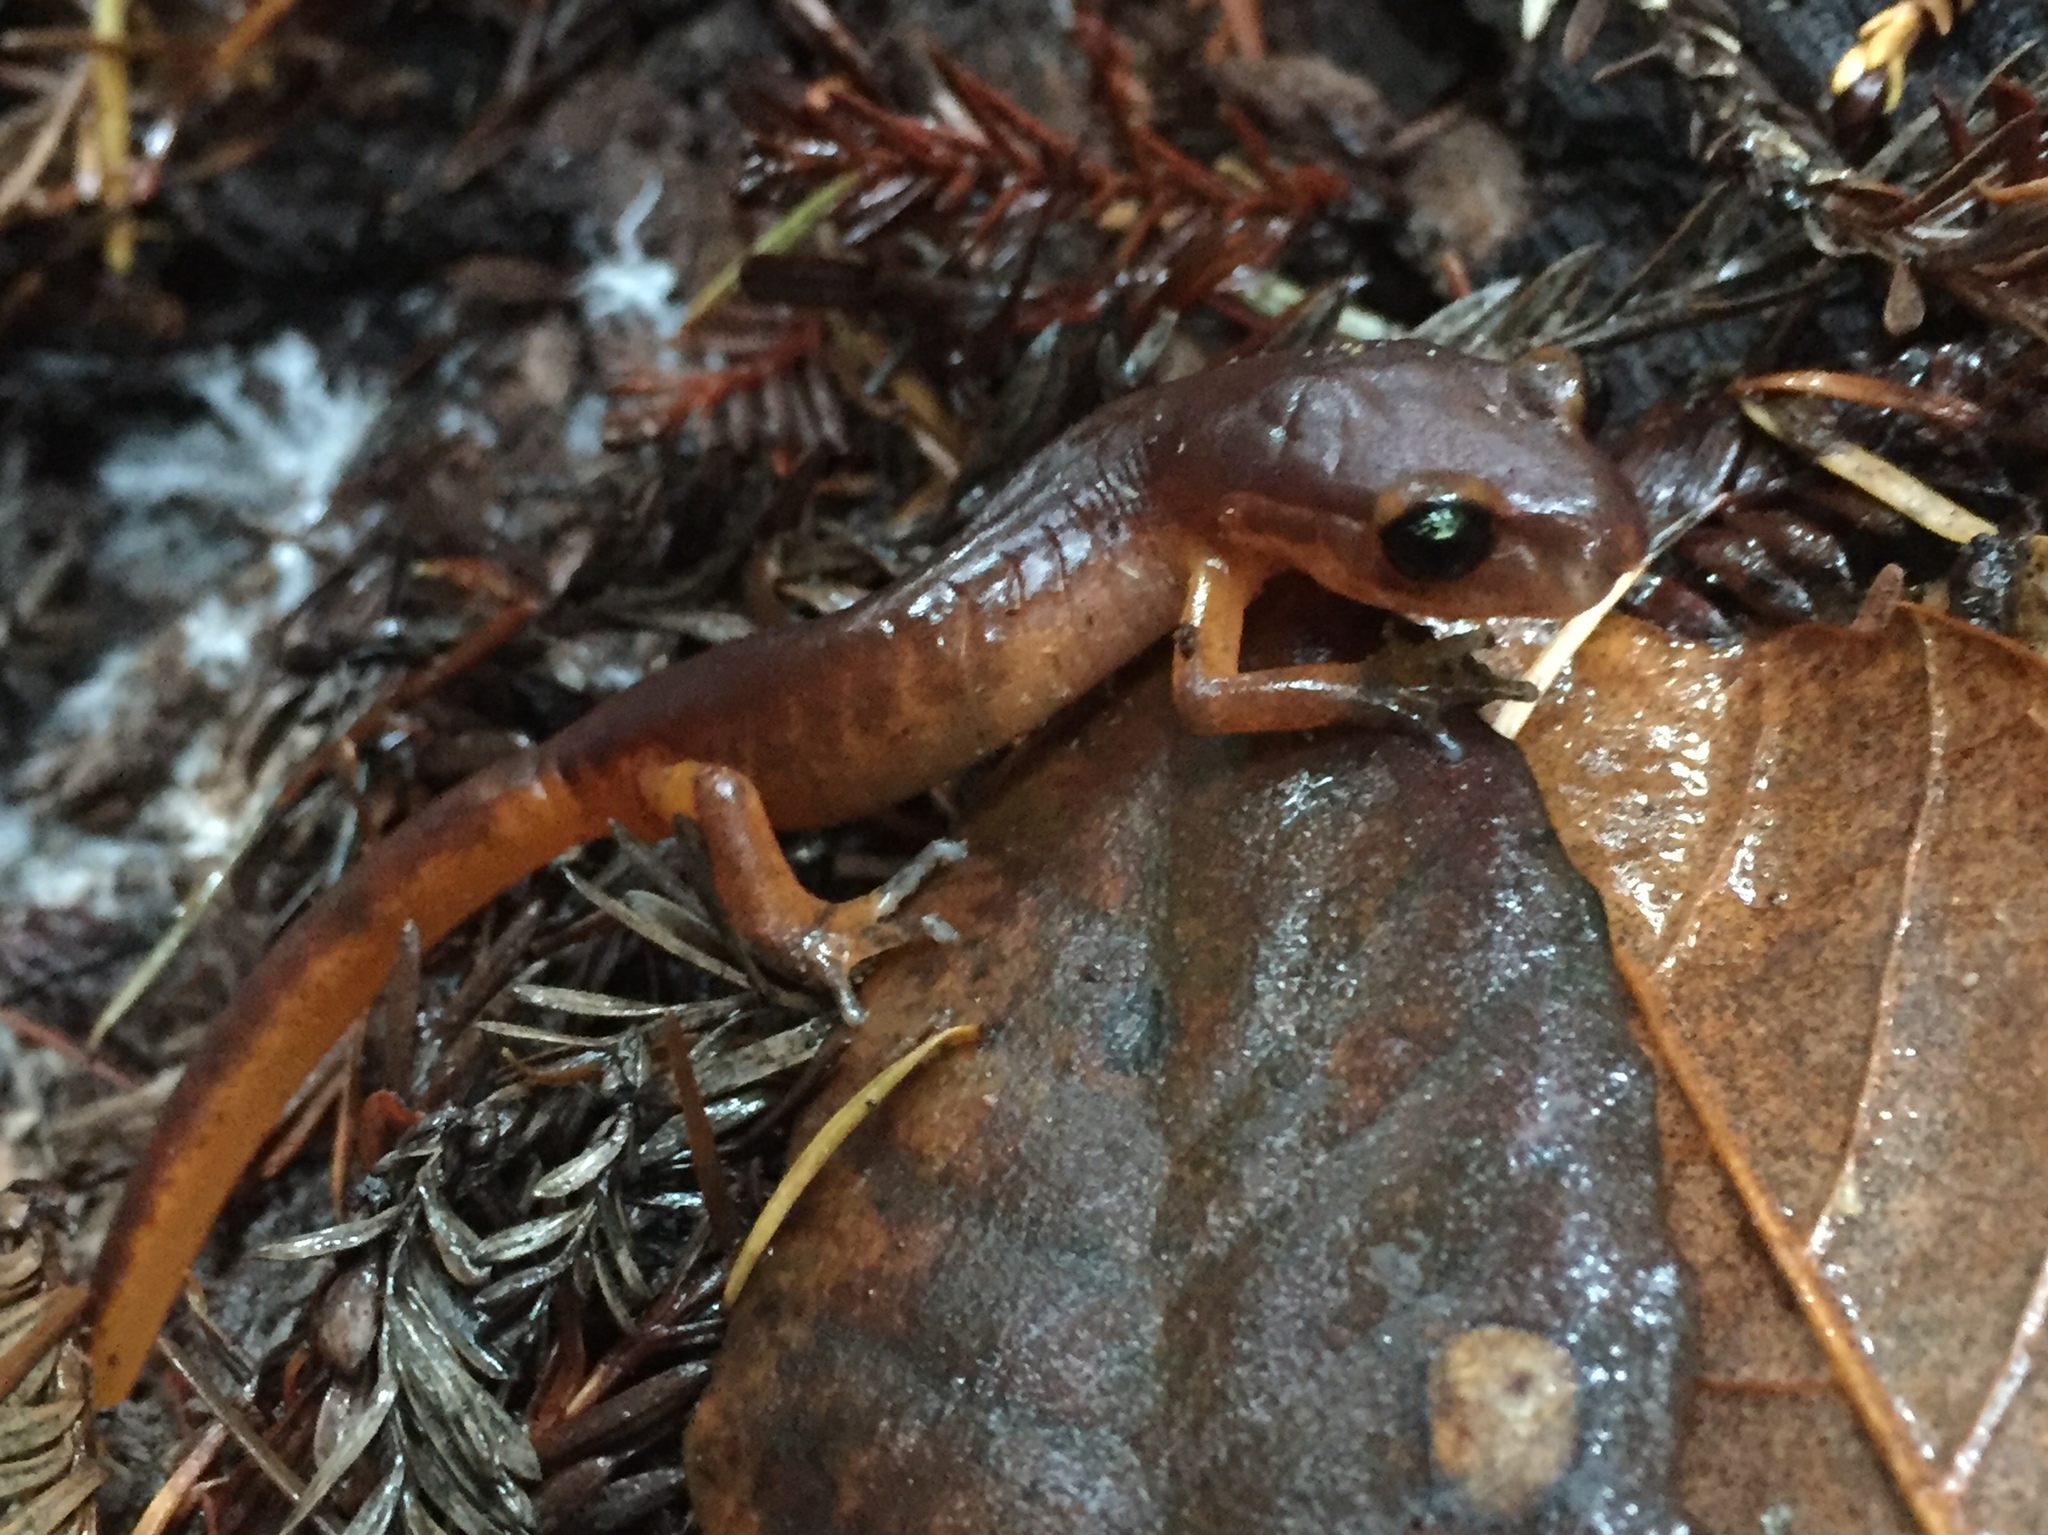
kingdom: Animalia
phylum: Chordata
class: Amphibia
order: Caudata
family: Plethodontidae
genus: Ensatina
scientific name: Ensatina eschscholtzii
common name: Ensatina
